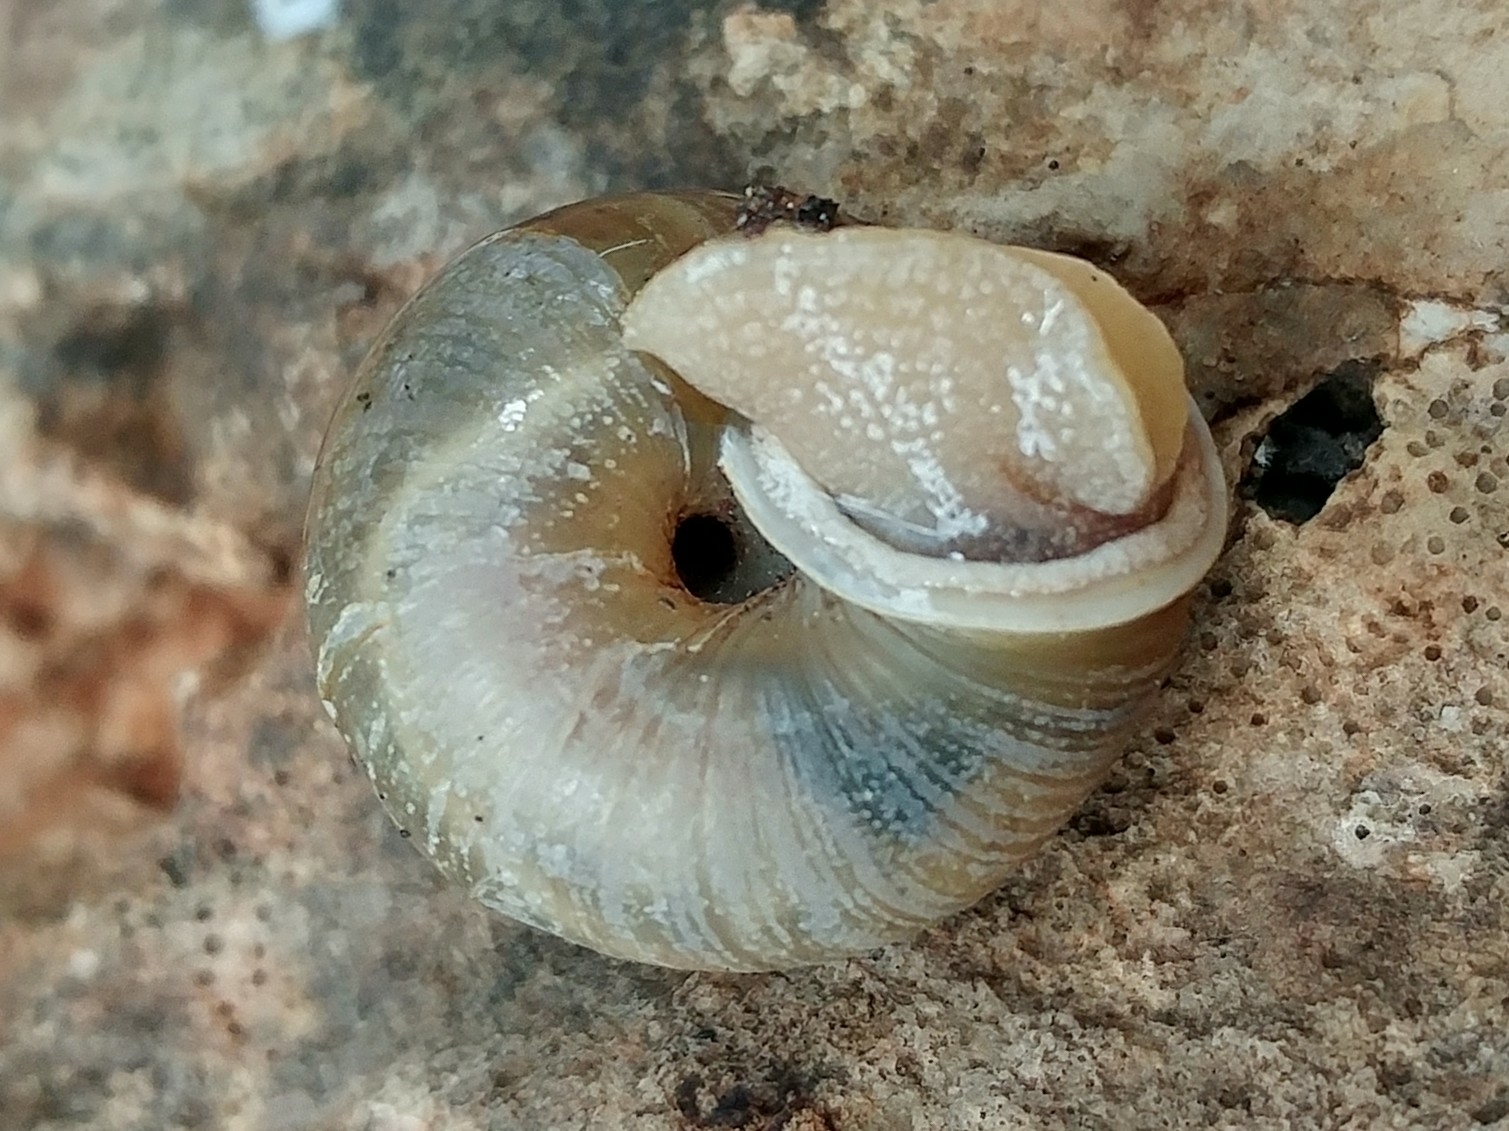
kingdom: Animalia
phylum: Mollusca
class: Gastropoda
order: Stylommatophora
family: Polygyridae
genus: Ashmunella
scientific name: Ashmunella rhyssa
